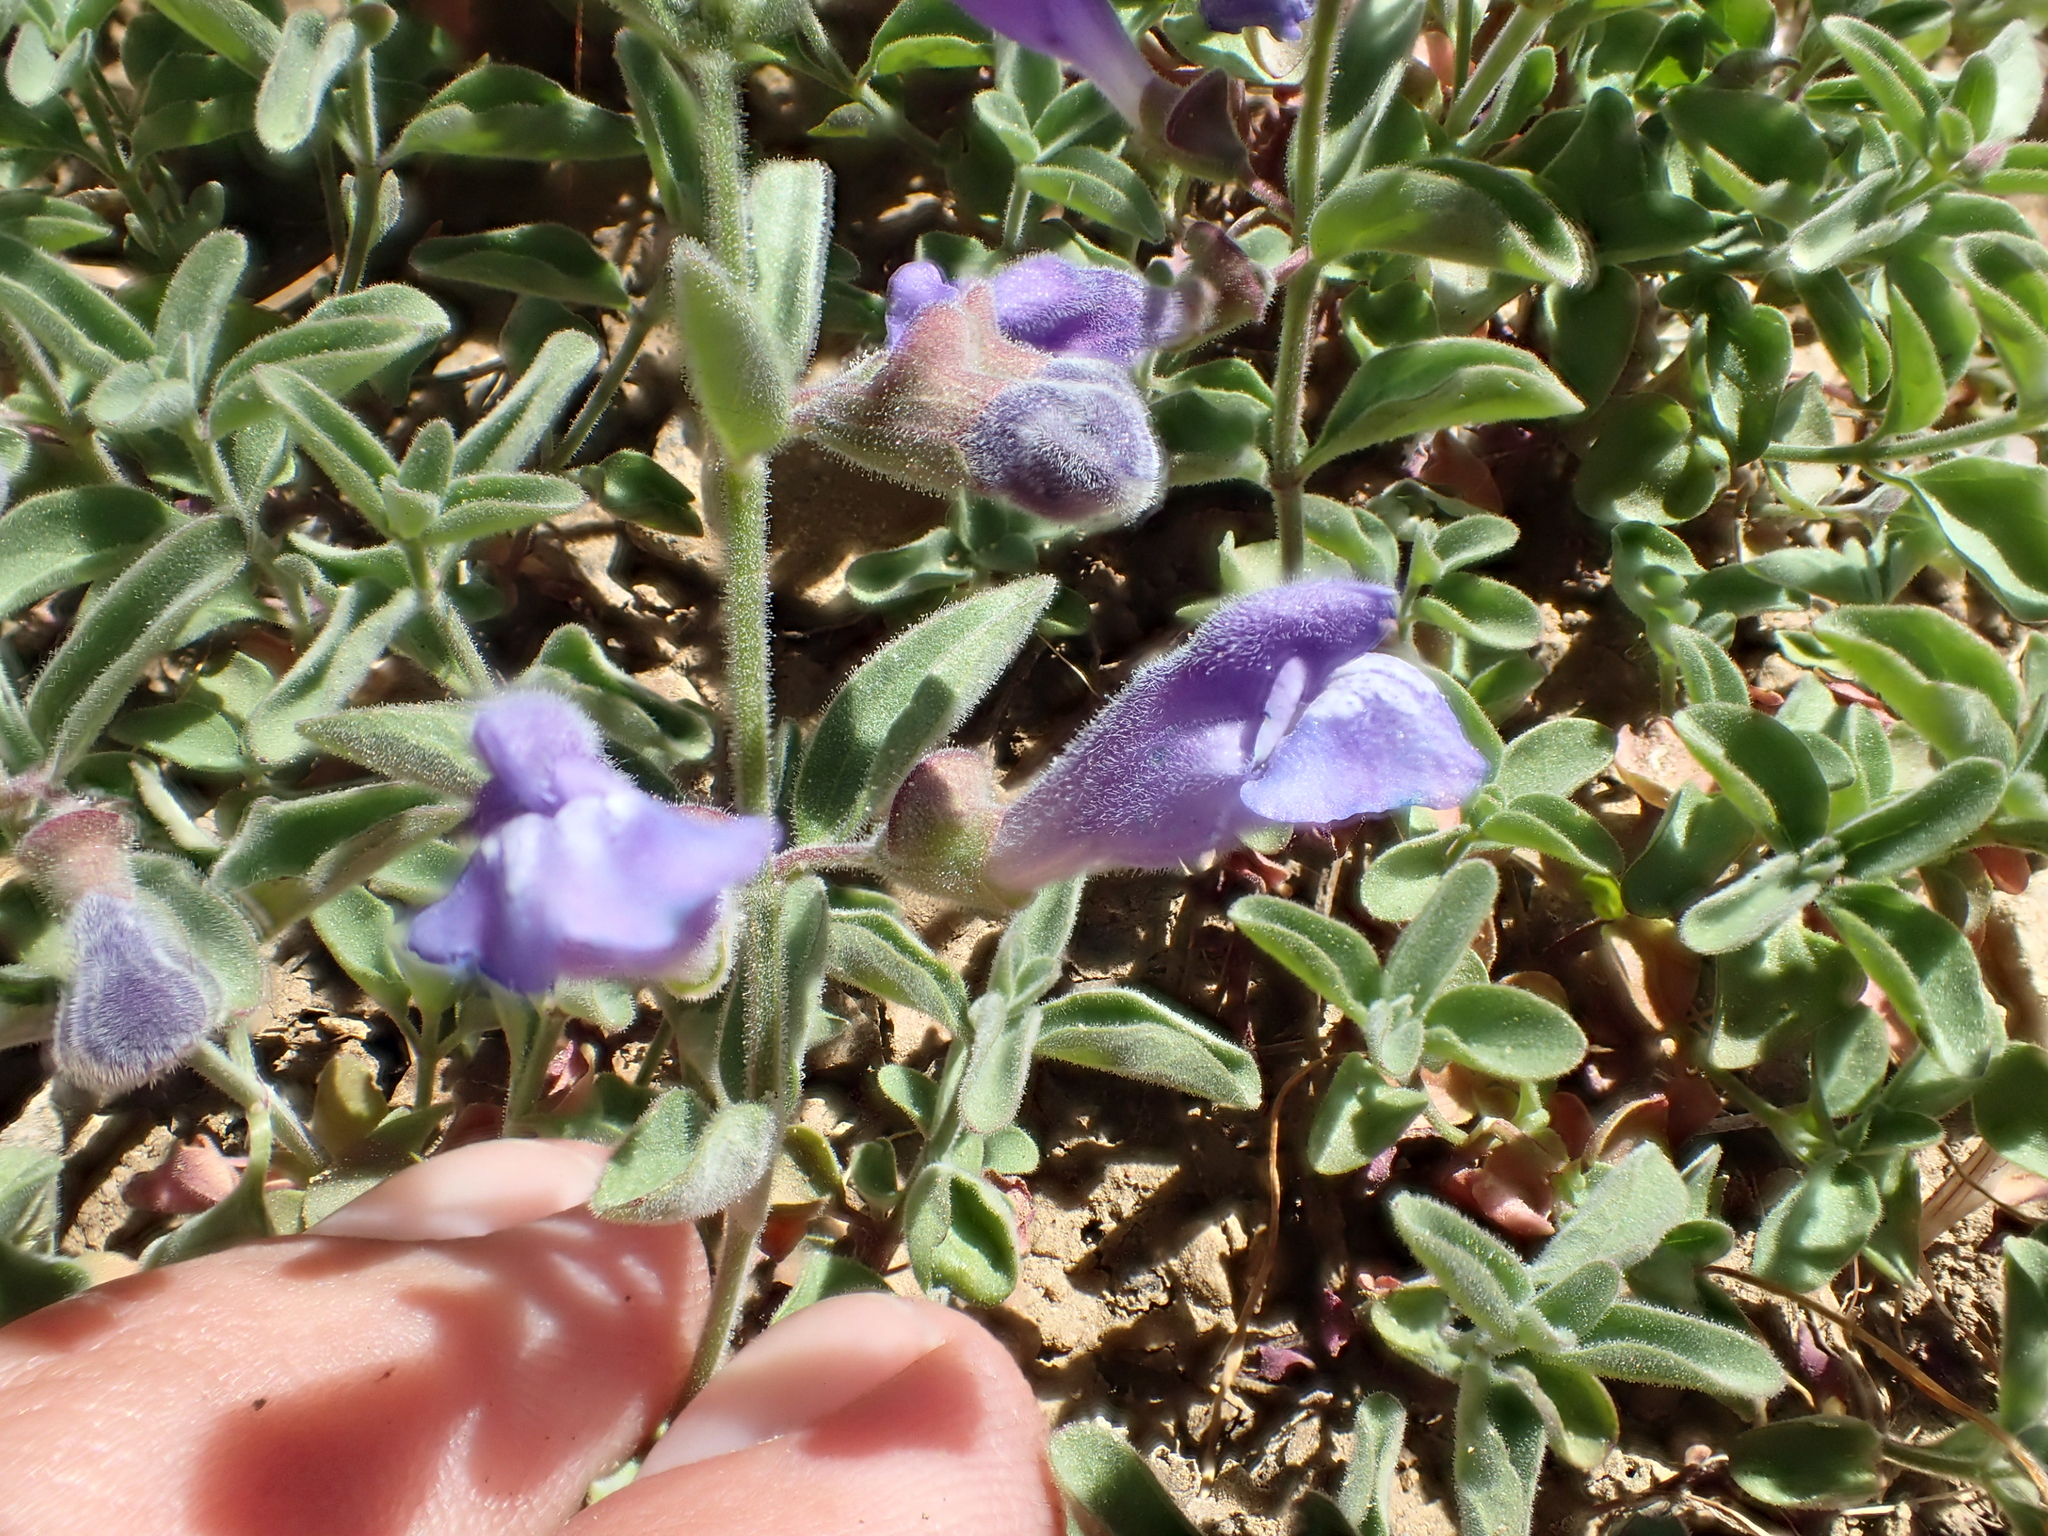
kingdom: Plantae
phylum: Tracheophyta
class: Magnoliopsida
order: Lamiales
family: Lamiaceae
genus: Scutellaria
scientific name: Scutellaria antirrhinoides
